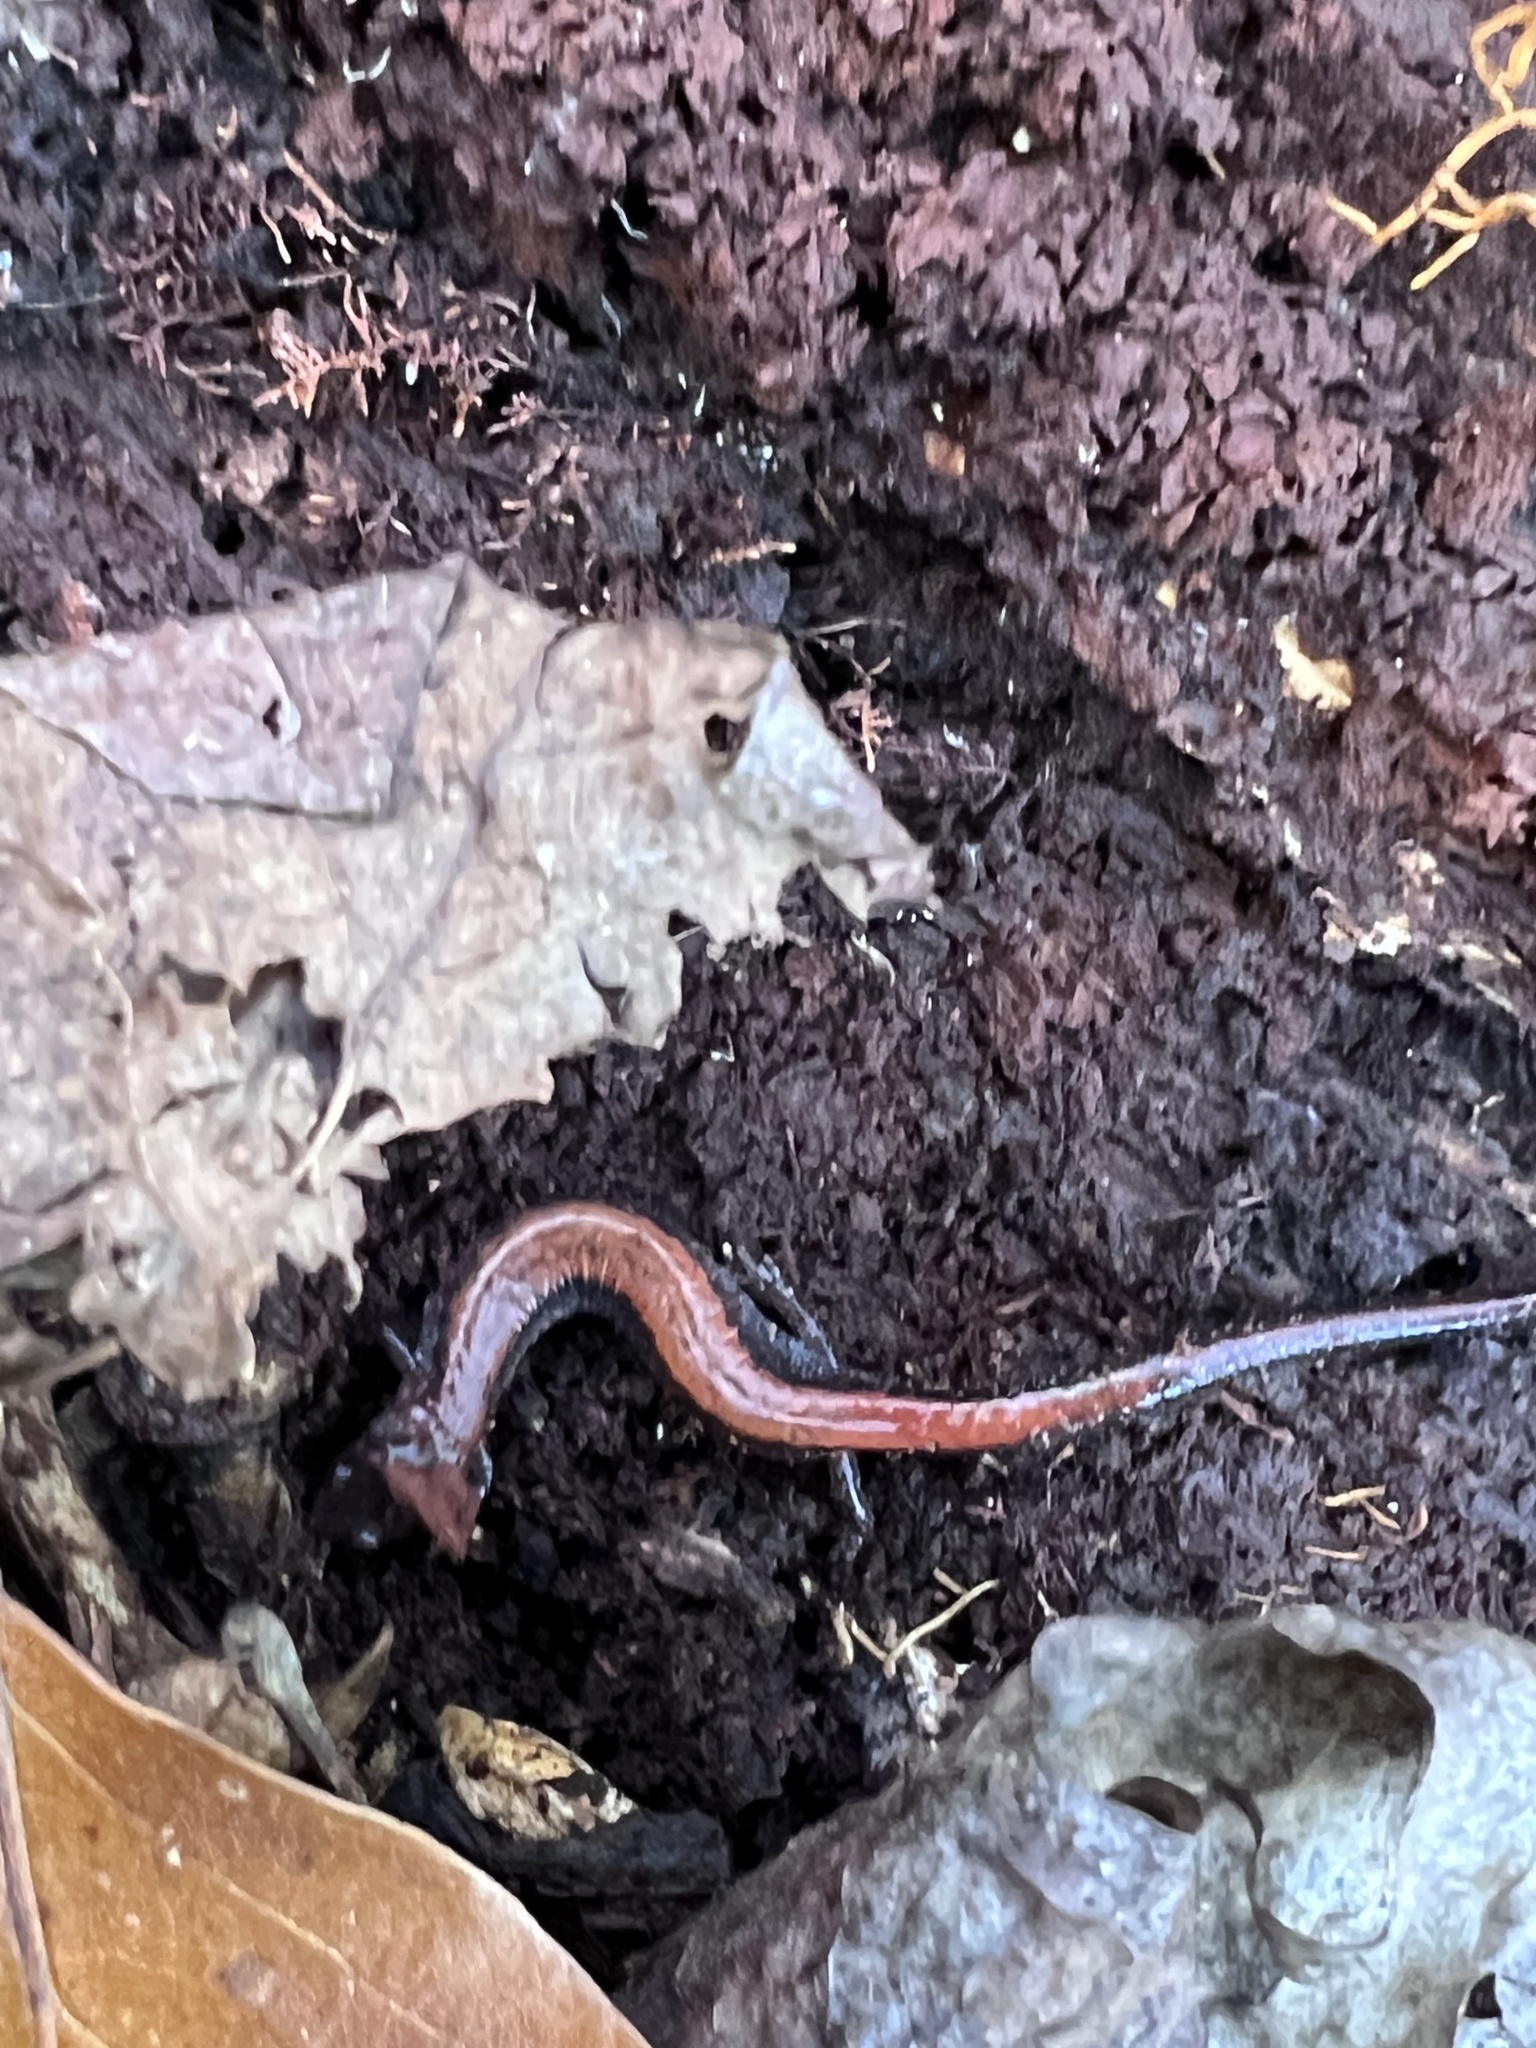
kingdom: Animalia
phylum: Chordata
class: Amphibia
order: Caudata
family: Plethodontidae
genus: Plethodon
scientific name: Plethodon cinereus
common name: Redback salamander
